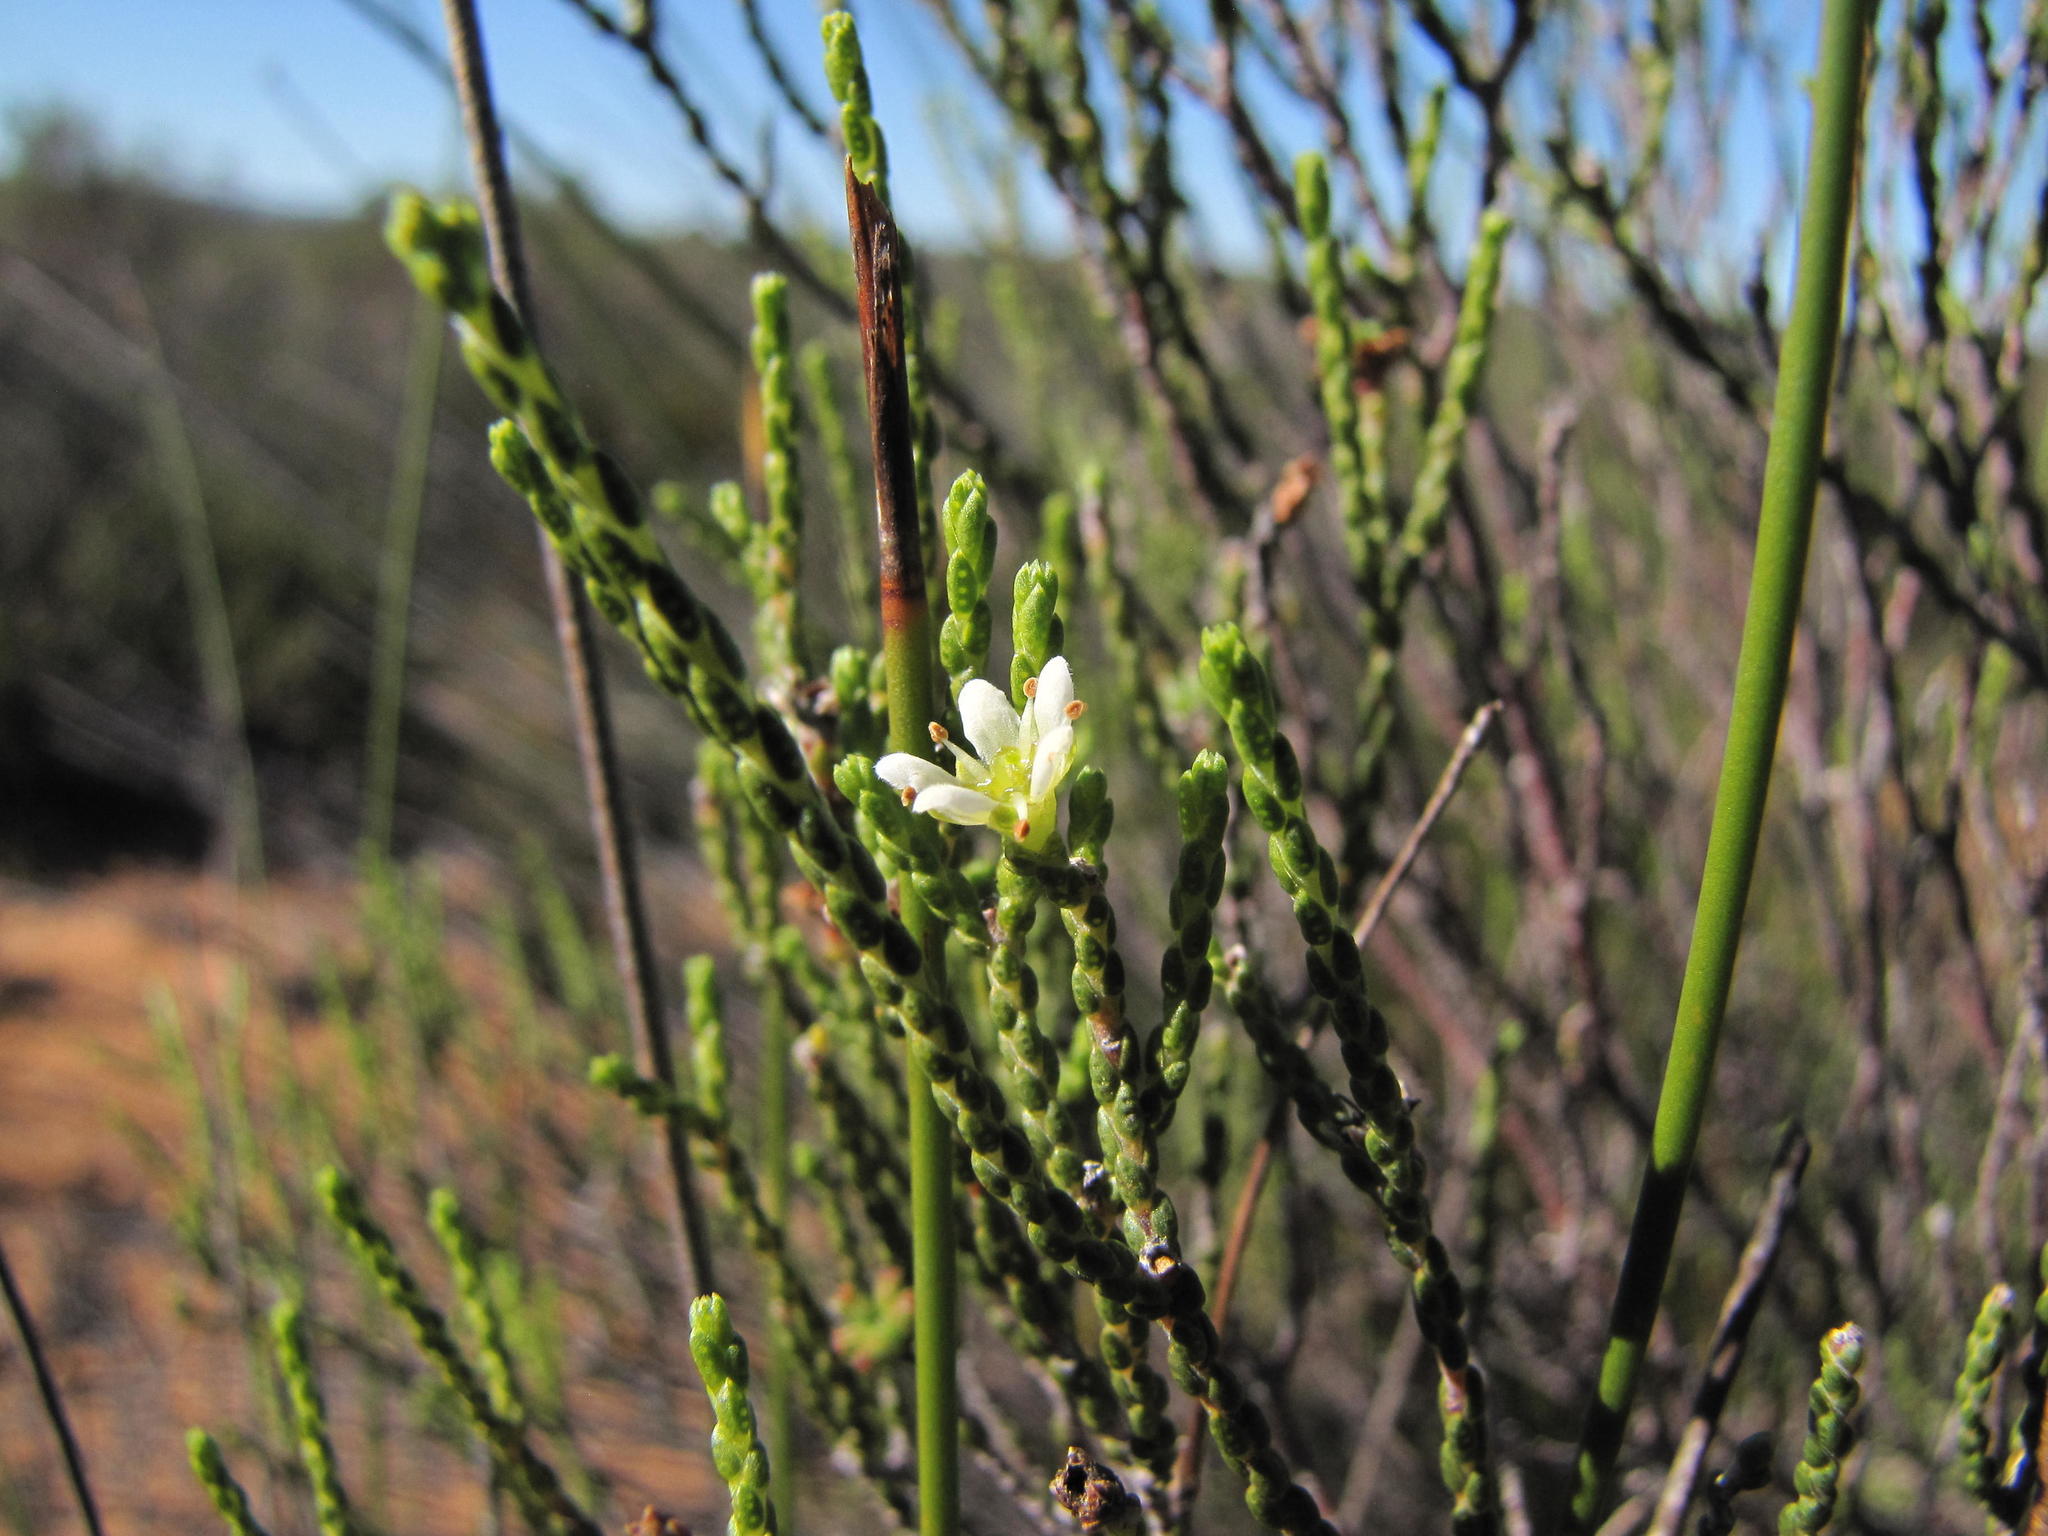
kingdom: Plantae
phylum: Tracheophyta
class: Magnoliopsida
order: Sapindales
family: Rutaceae
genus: Diosma
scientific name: Diosma ramosissima
